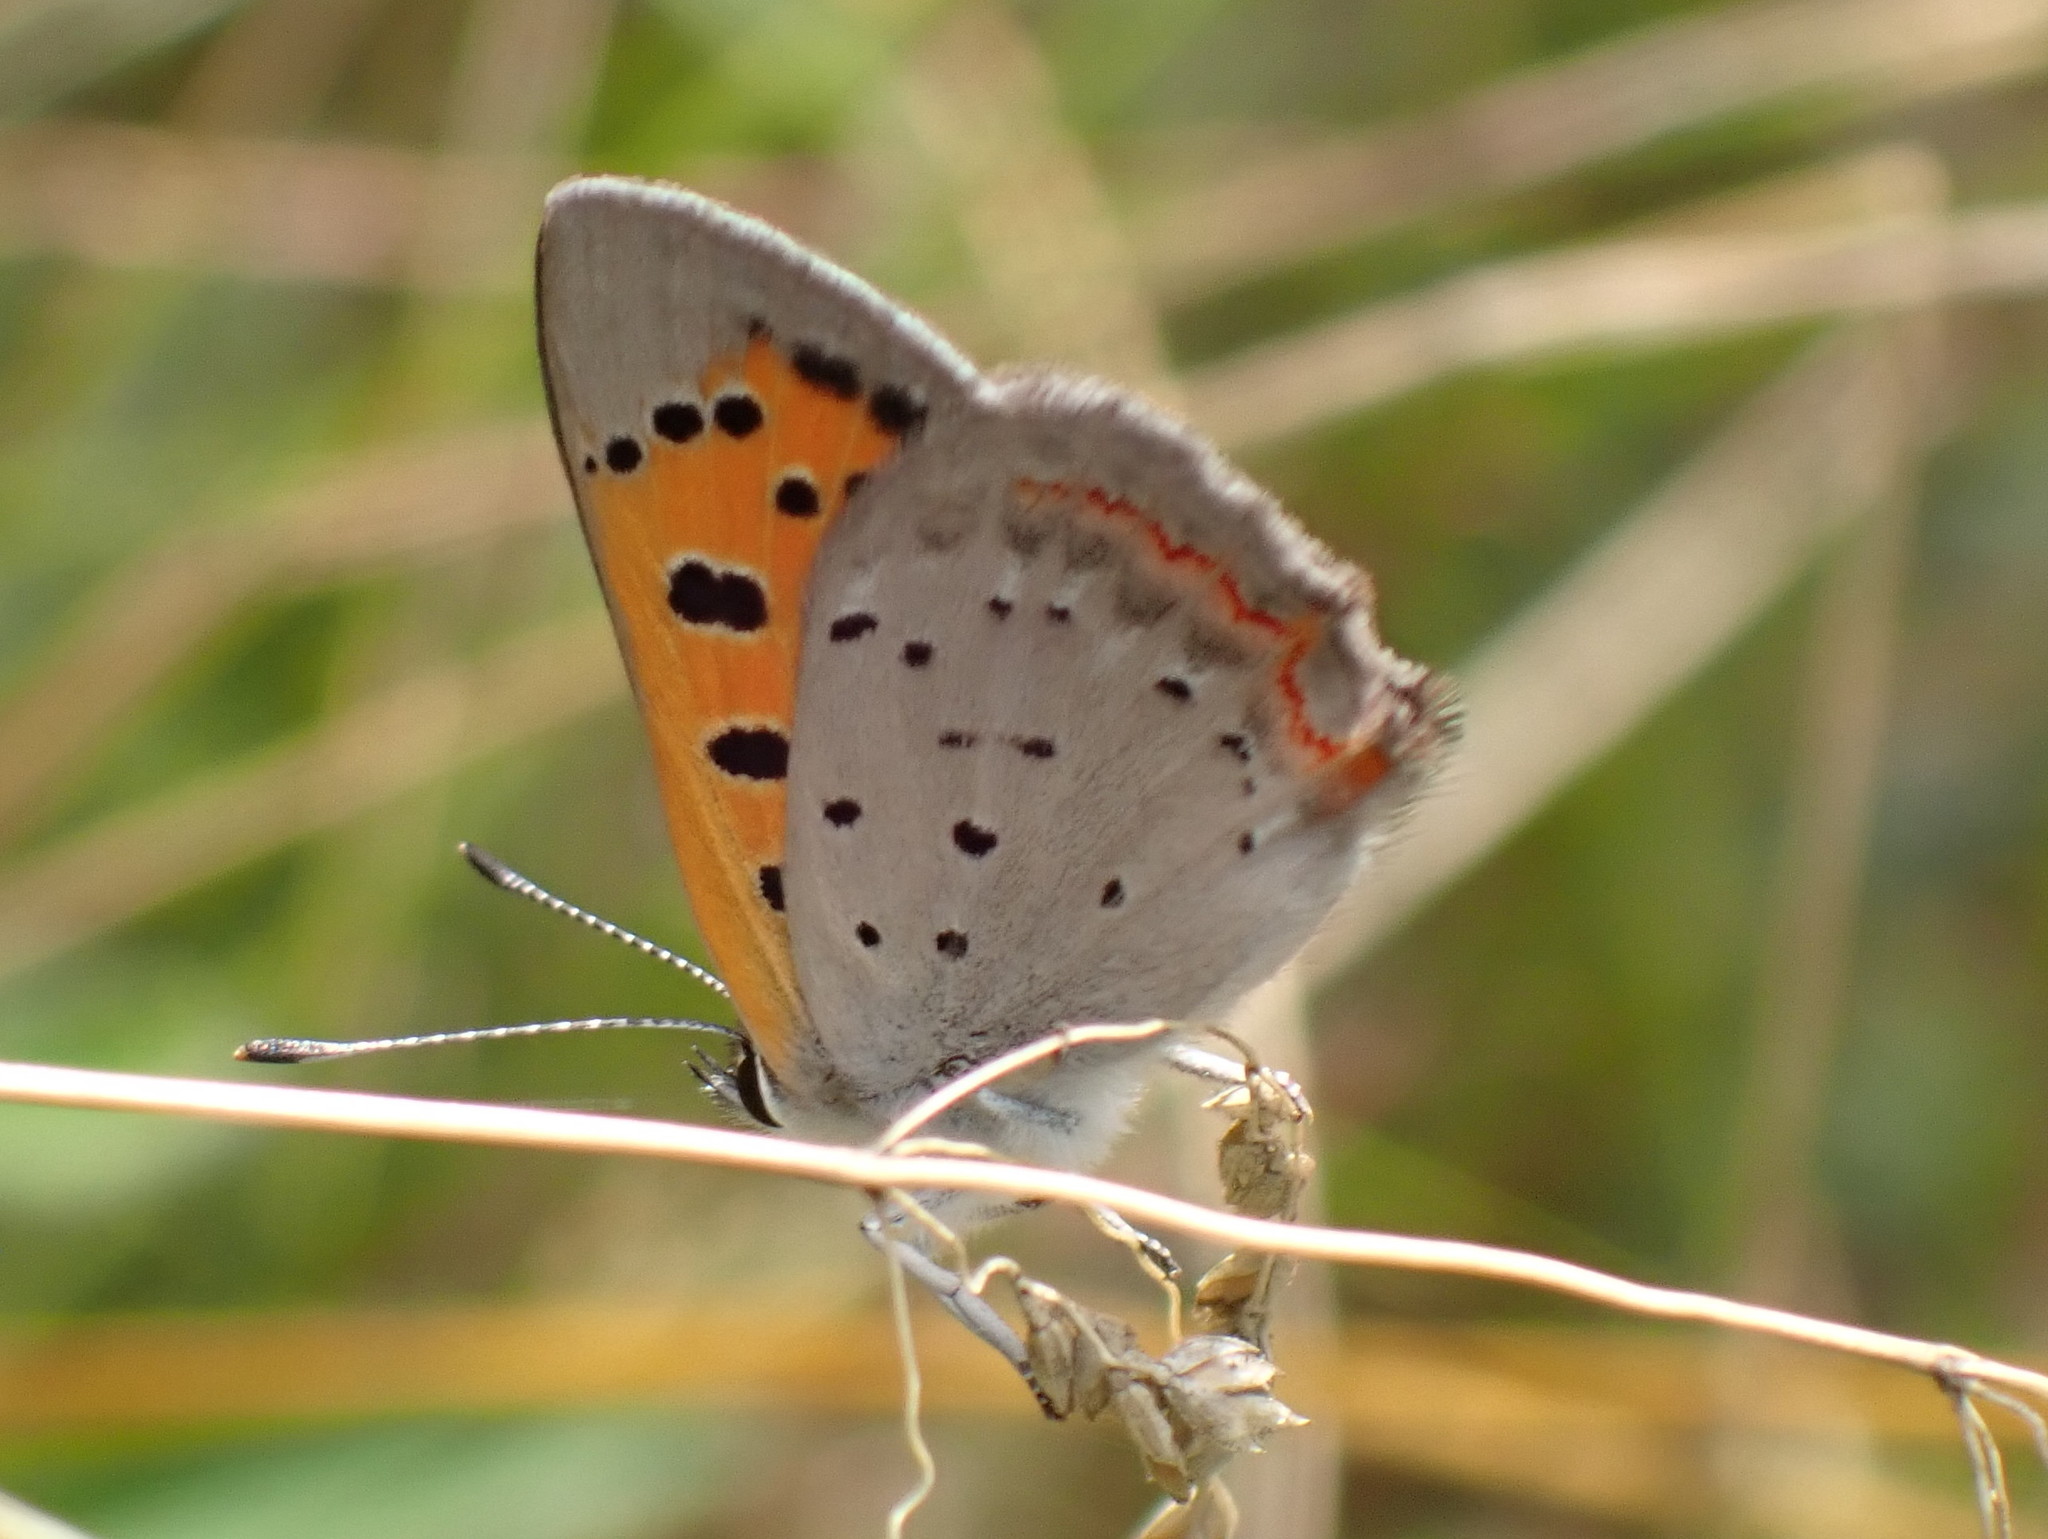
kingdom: Animalia
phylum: Arthropoda
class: Insecta
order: Lepidoptera
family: Lycaenidae
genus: Lycaena
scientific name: Lycaena hypophlaeas
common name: American copper
